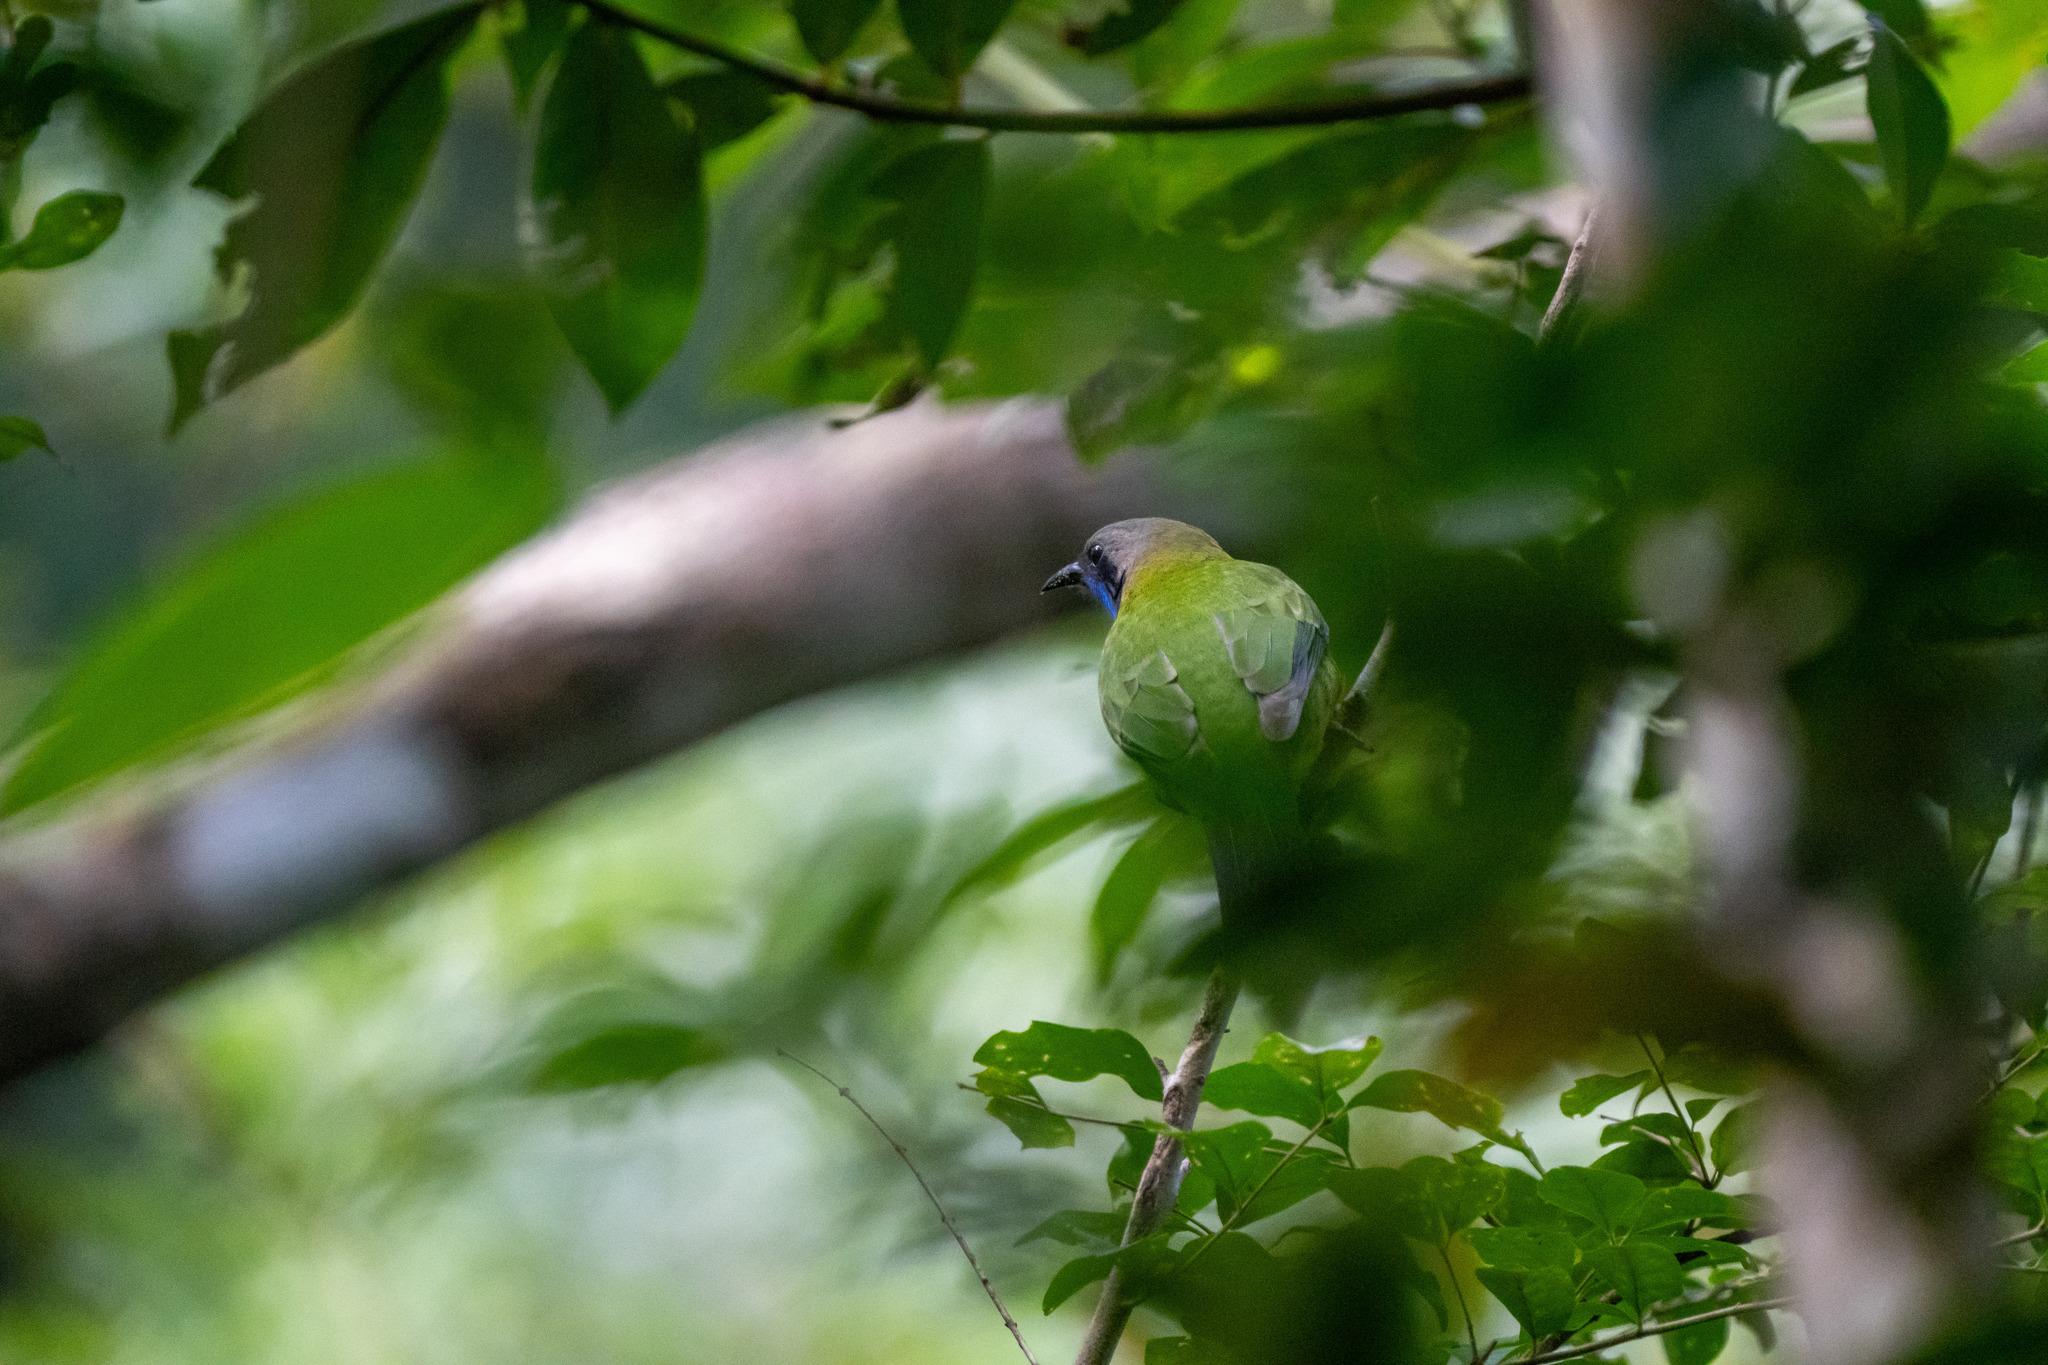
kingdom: Animalia
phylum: Chordata
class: Aves
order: Passeriformes
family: Chloropseidae
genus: Chloropsis
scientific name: Chloropsis hardwickii
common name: Orange-bellied leafbird
